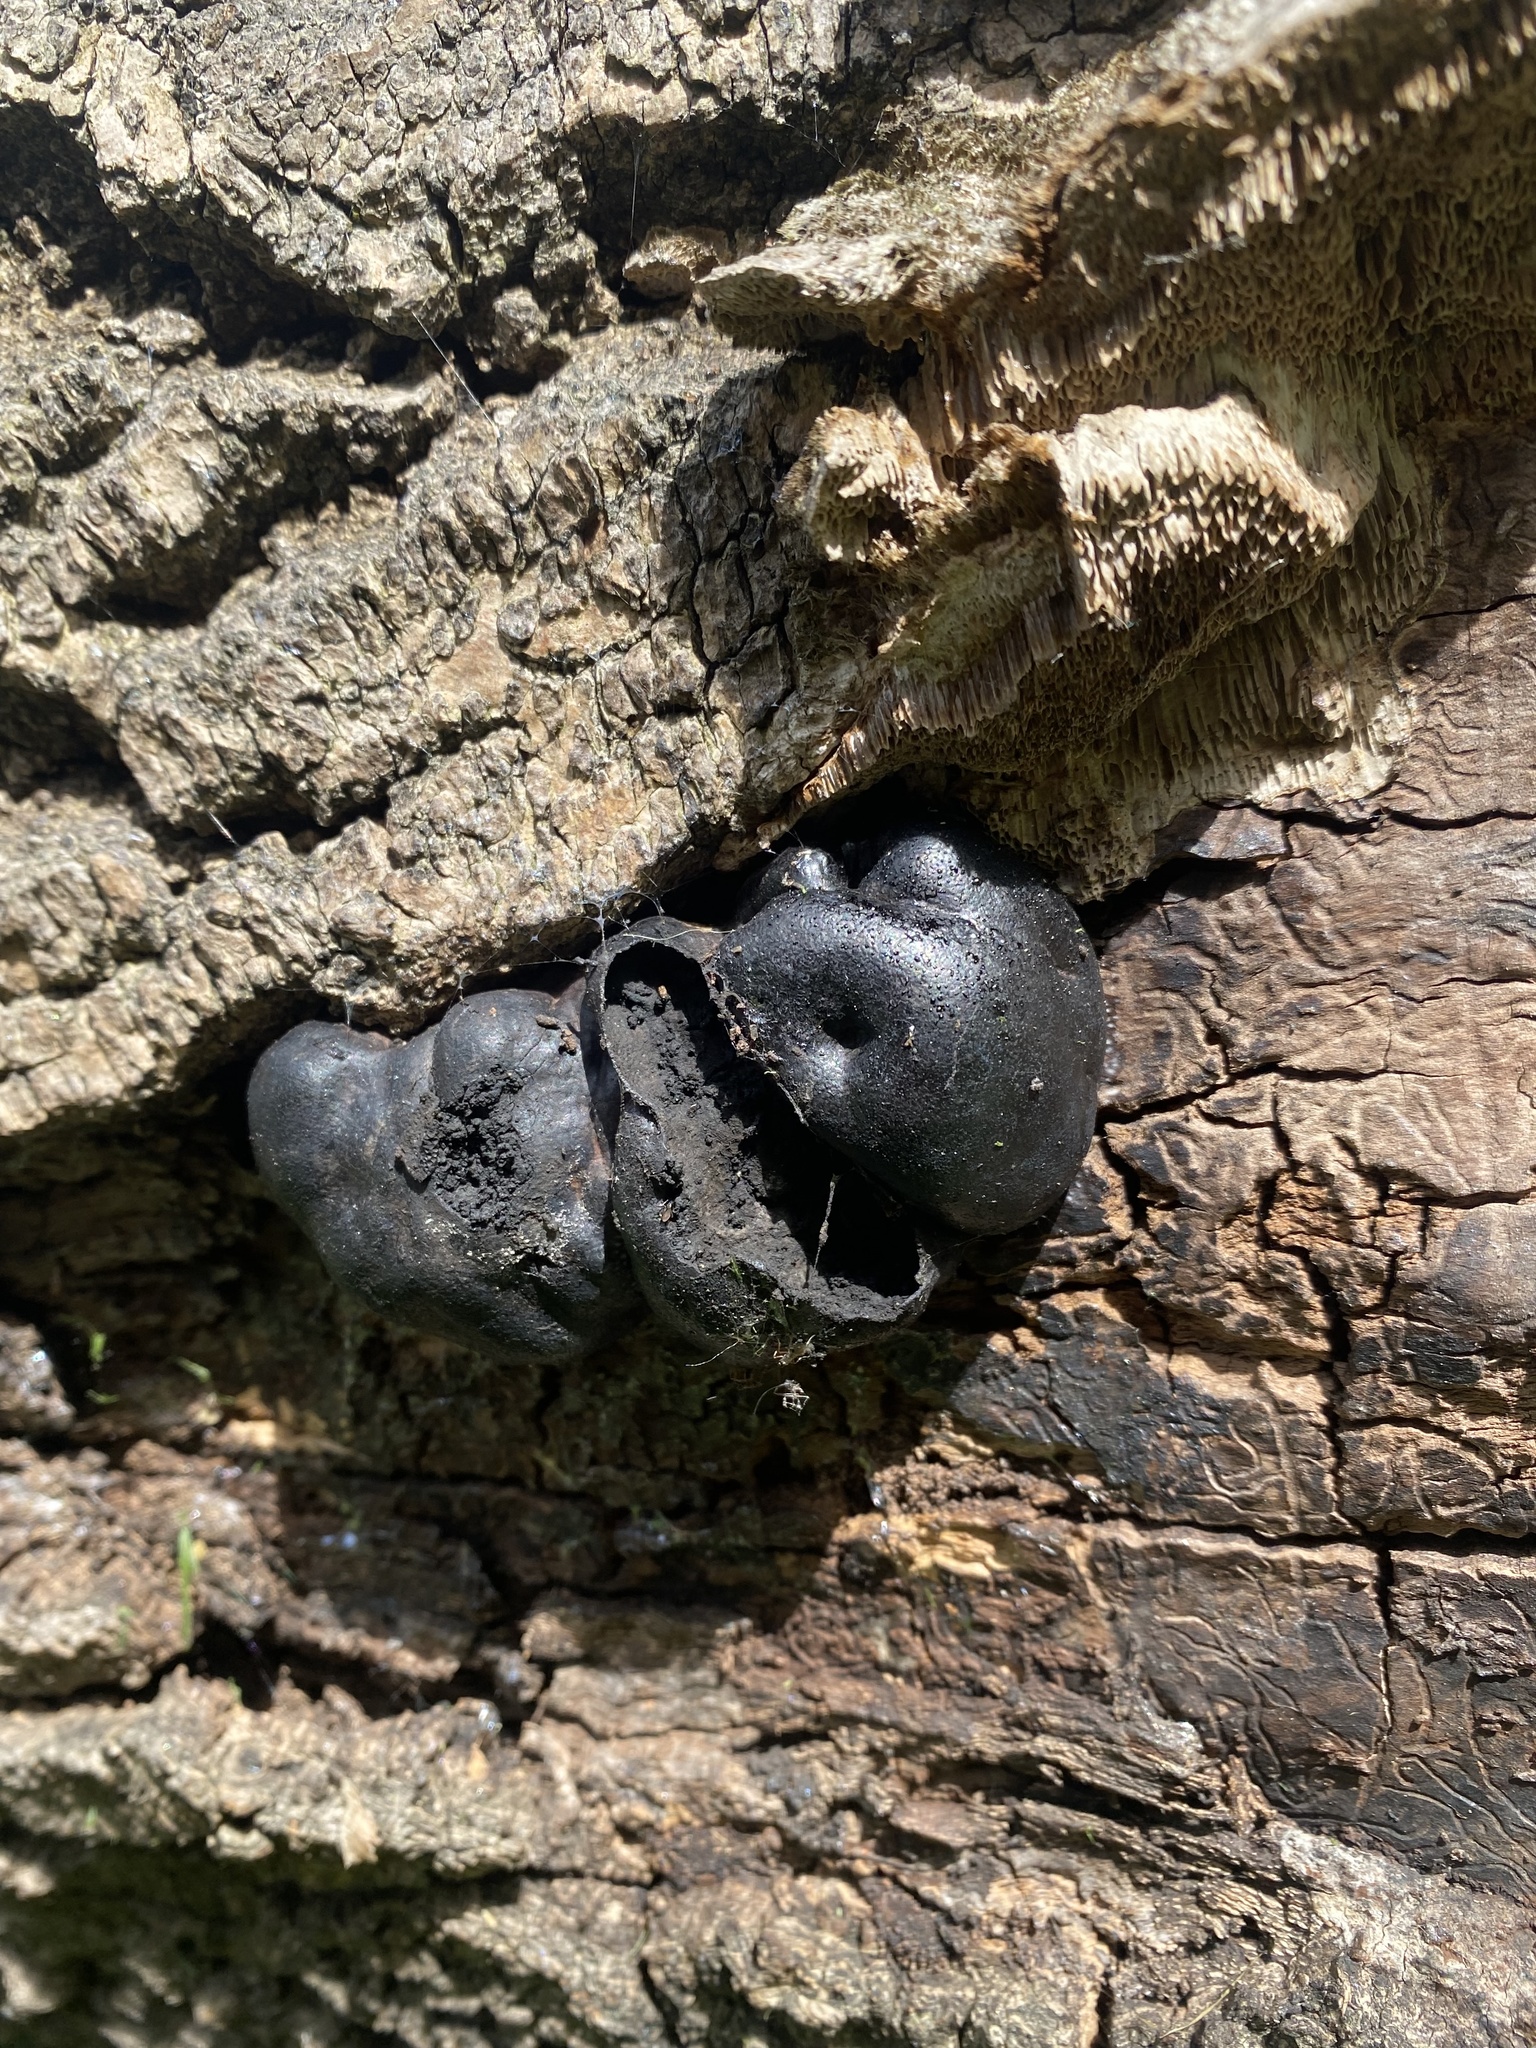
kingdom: Fungi
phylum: Ascomycota
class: Sordariomycetes
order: Xylariales
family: Hypoxylaceae
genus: Daldinia
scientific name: Daldinia concentrica
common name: Cramp balls
